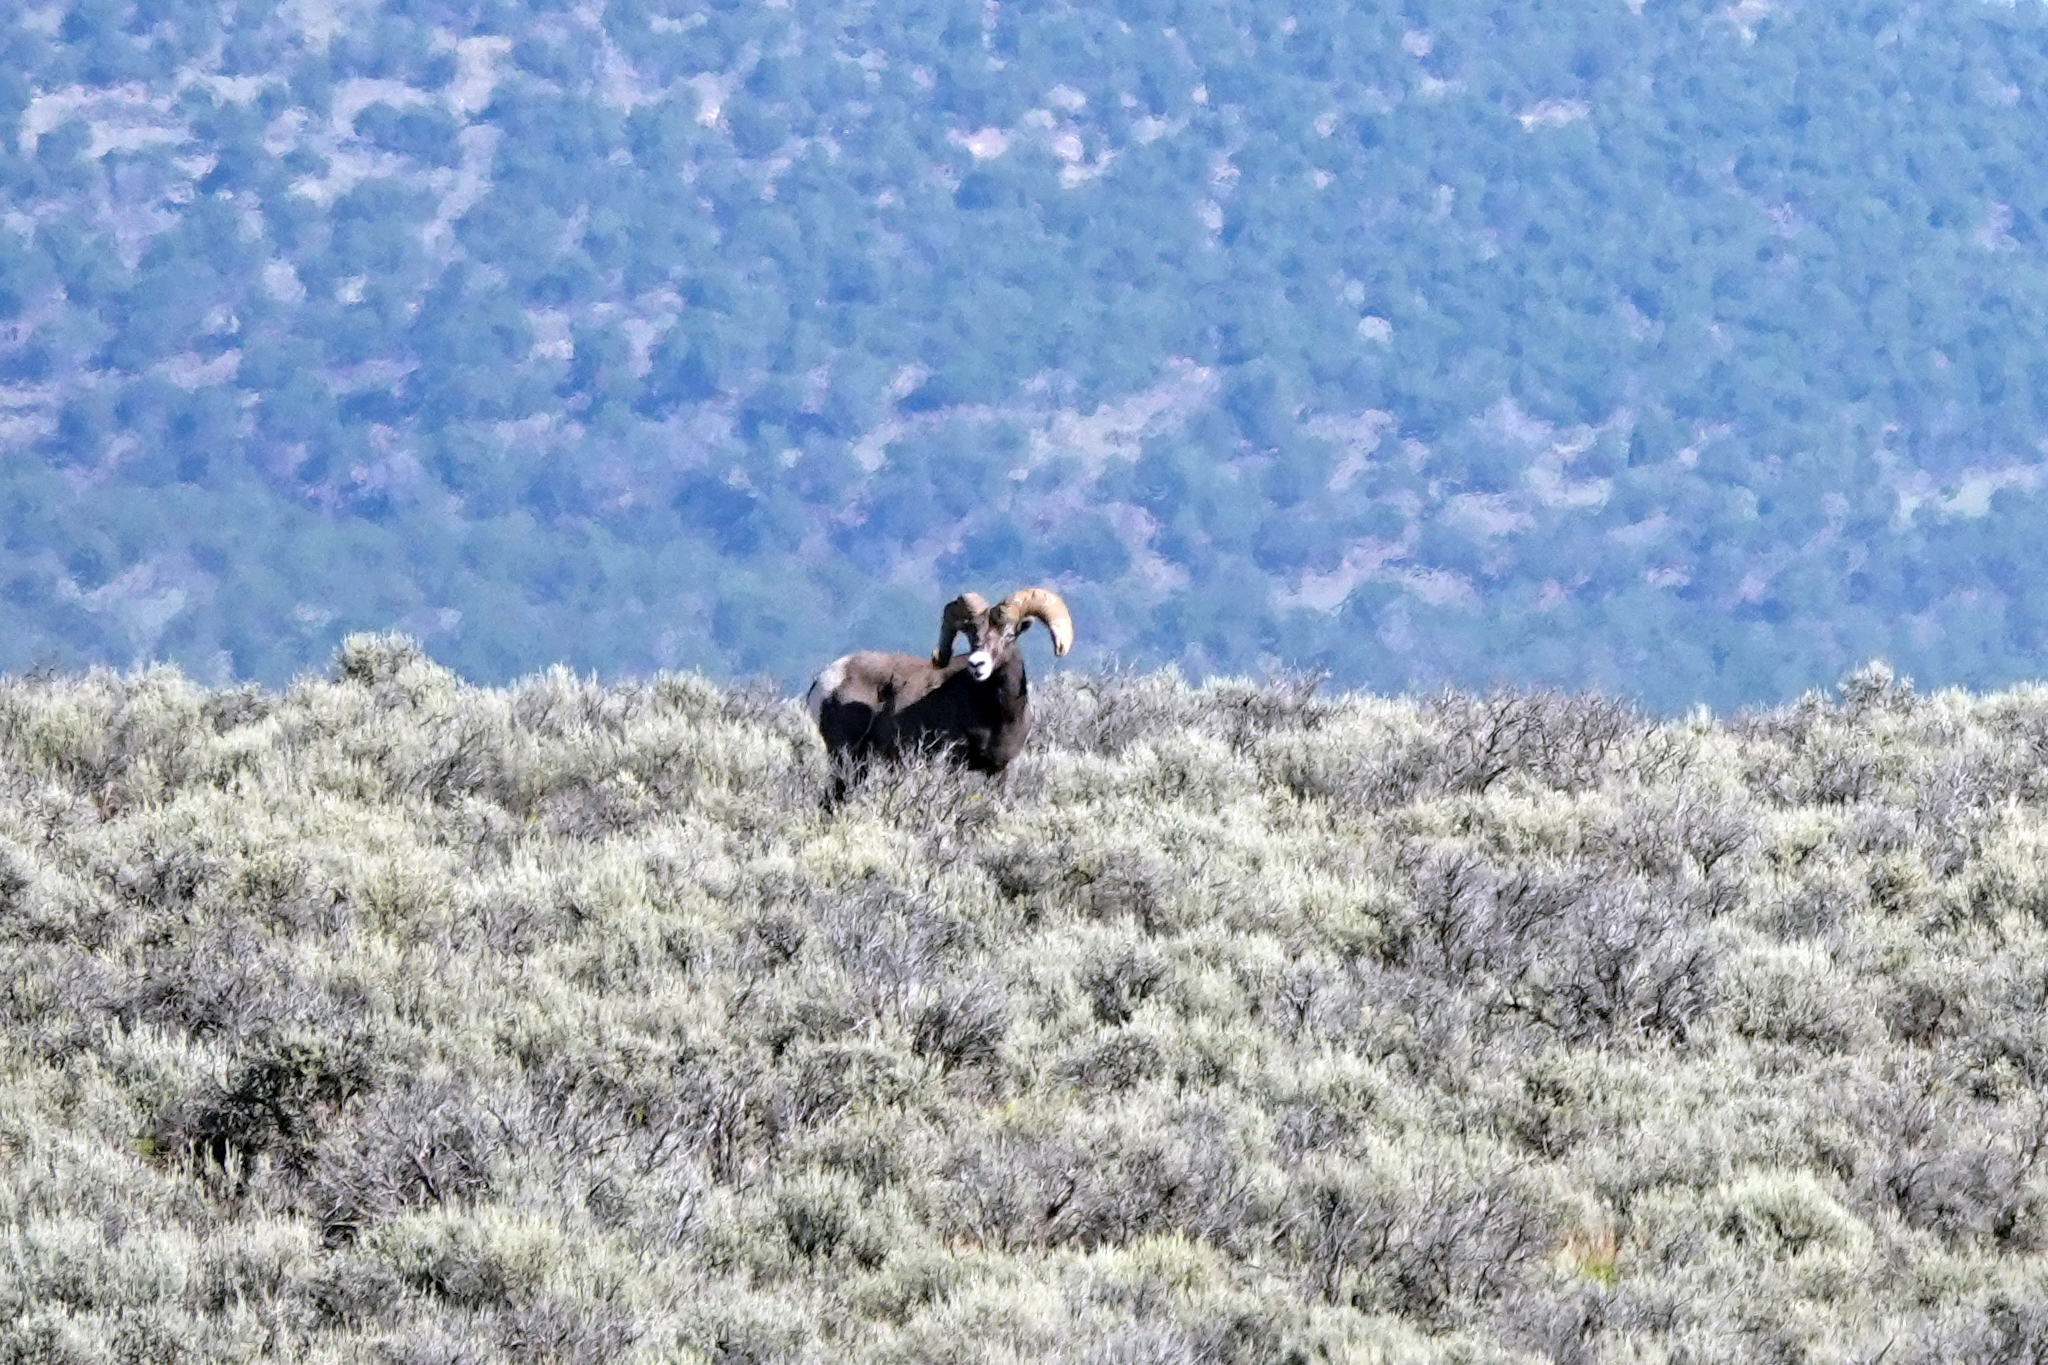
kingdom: Animalia
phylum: Chordata
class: Mammalia
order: Artiodactyla
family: Bovidae
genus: Ovis
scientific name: Ovis canadensis
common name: Bighorn sheep
